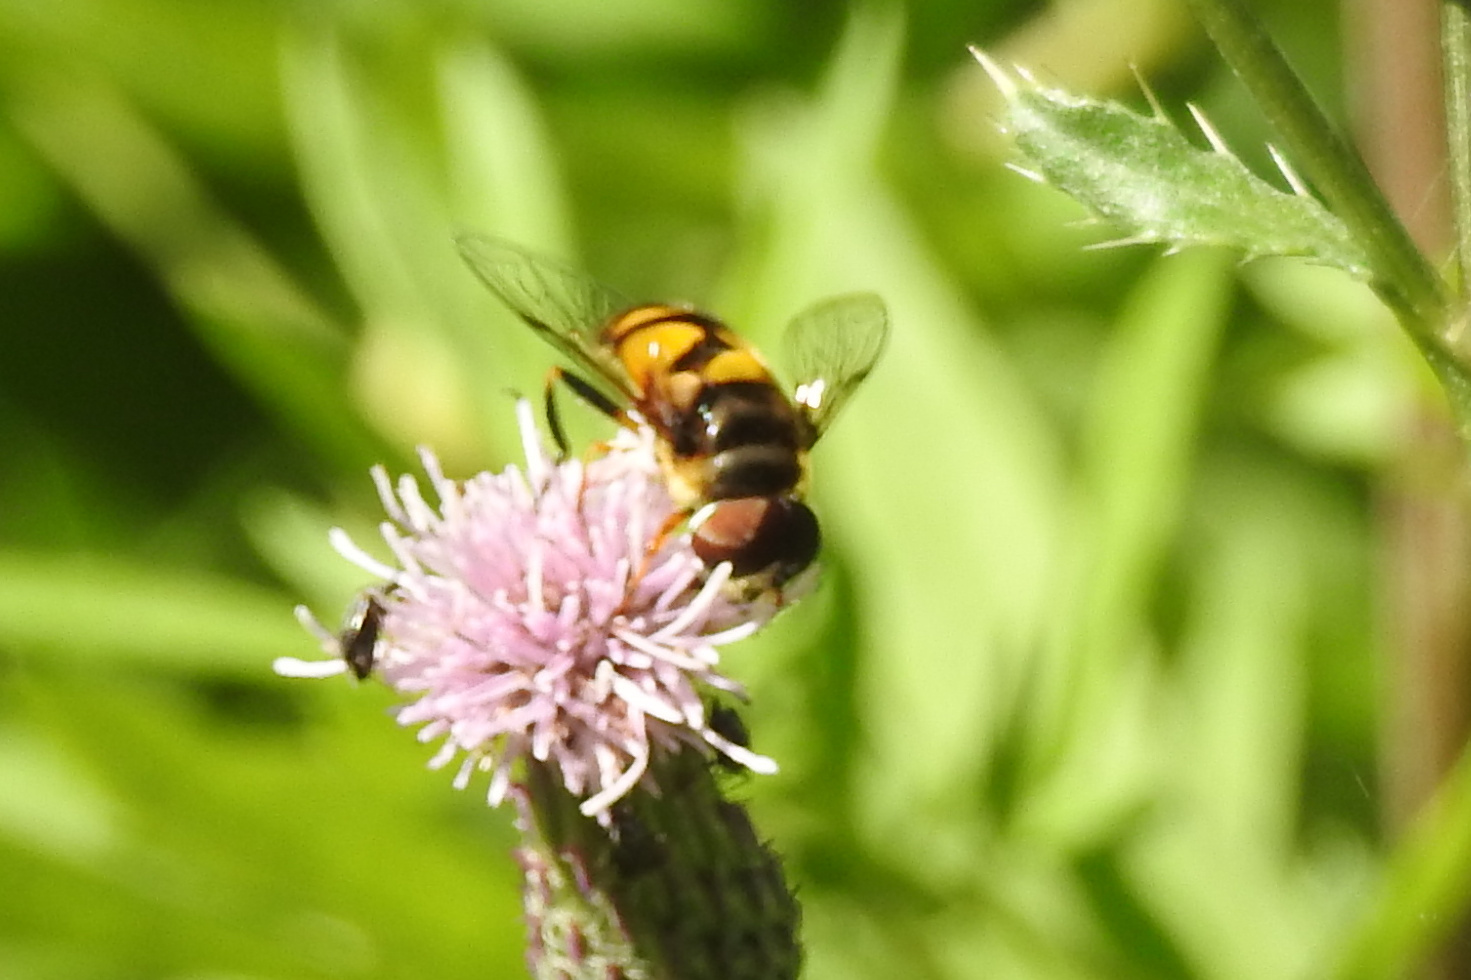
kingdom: Animalia
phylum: Arthropoda
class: Insecta
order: Diptera
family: Syrphidae
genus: Eristalis
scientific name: Eristalis transversa
